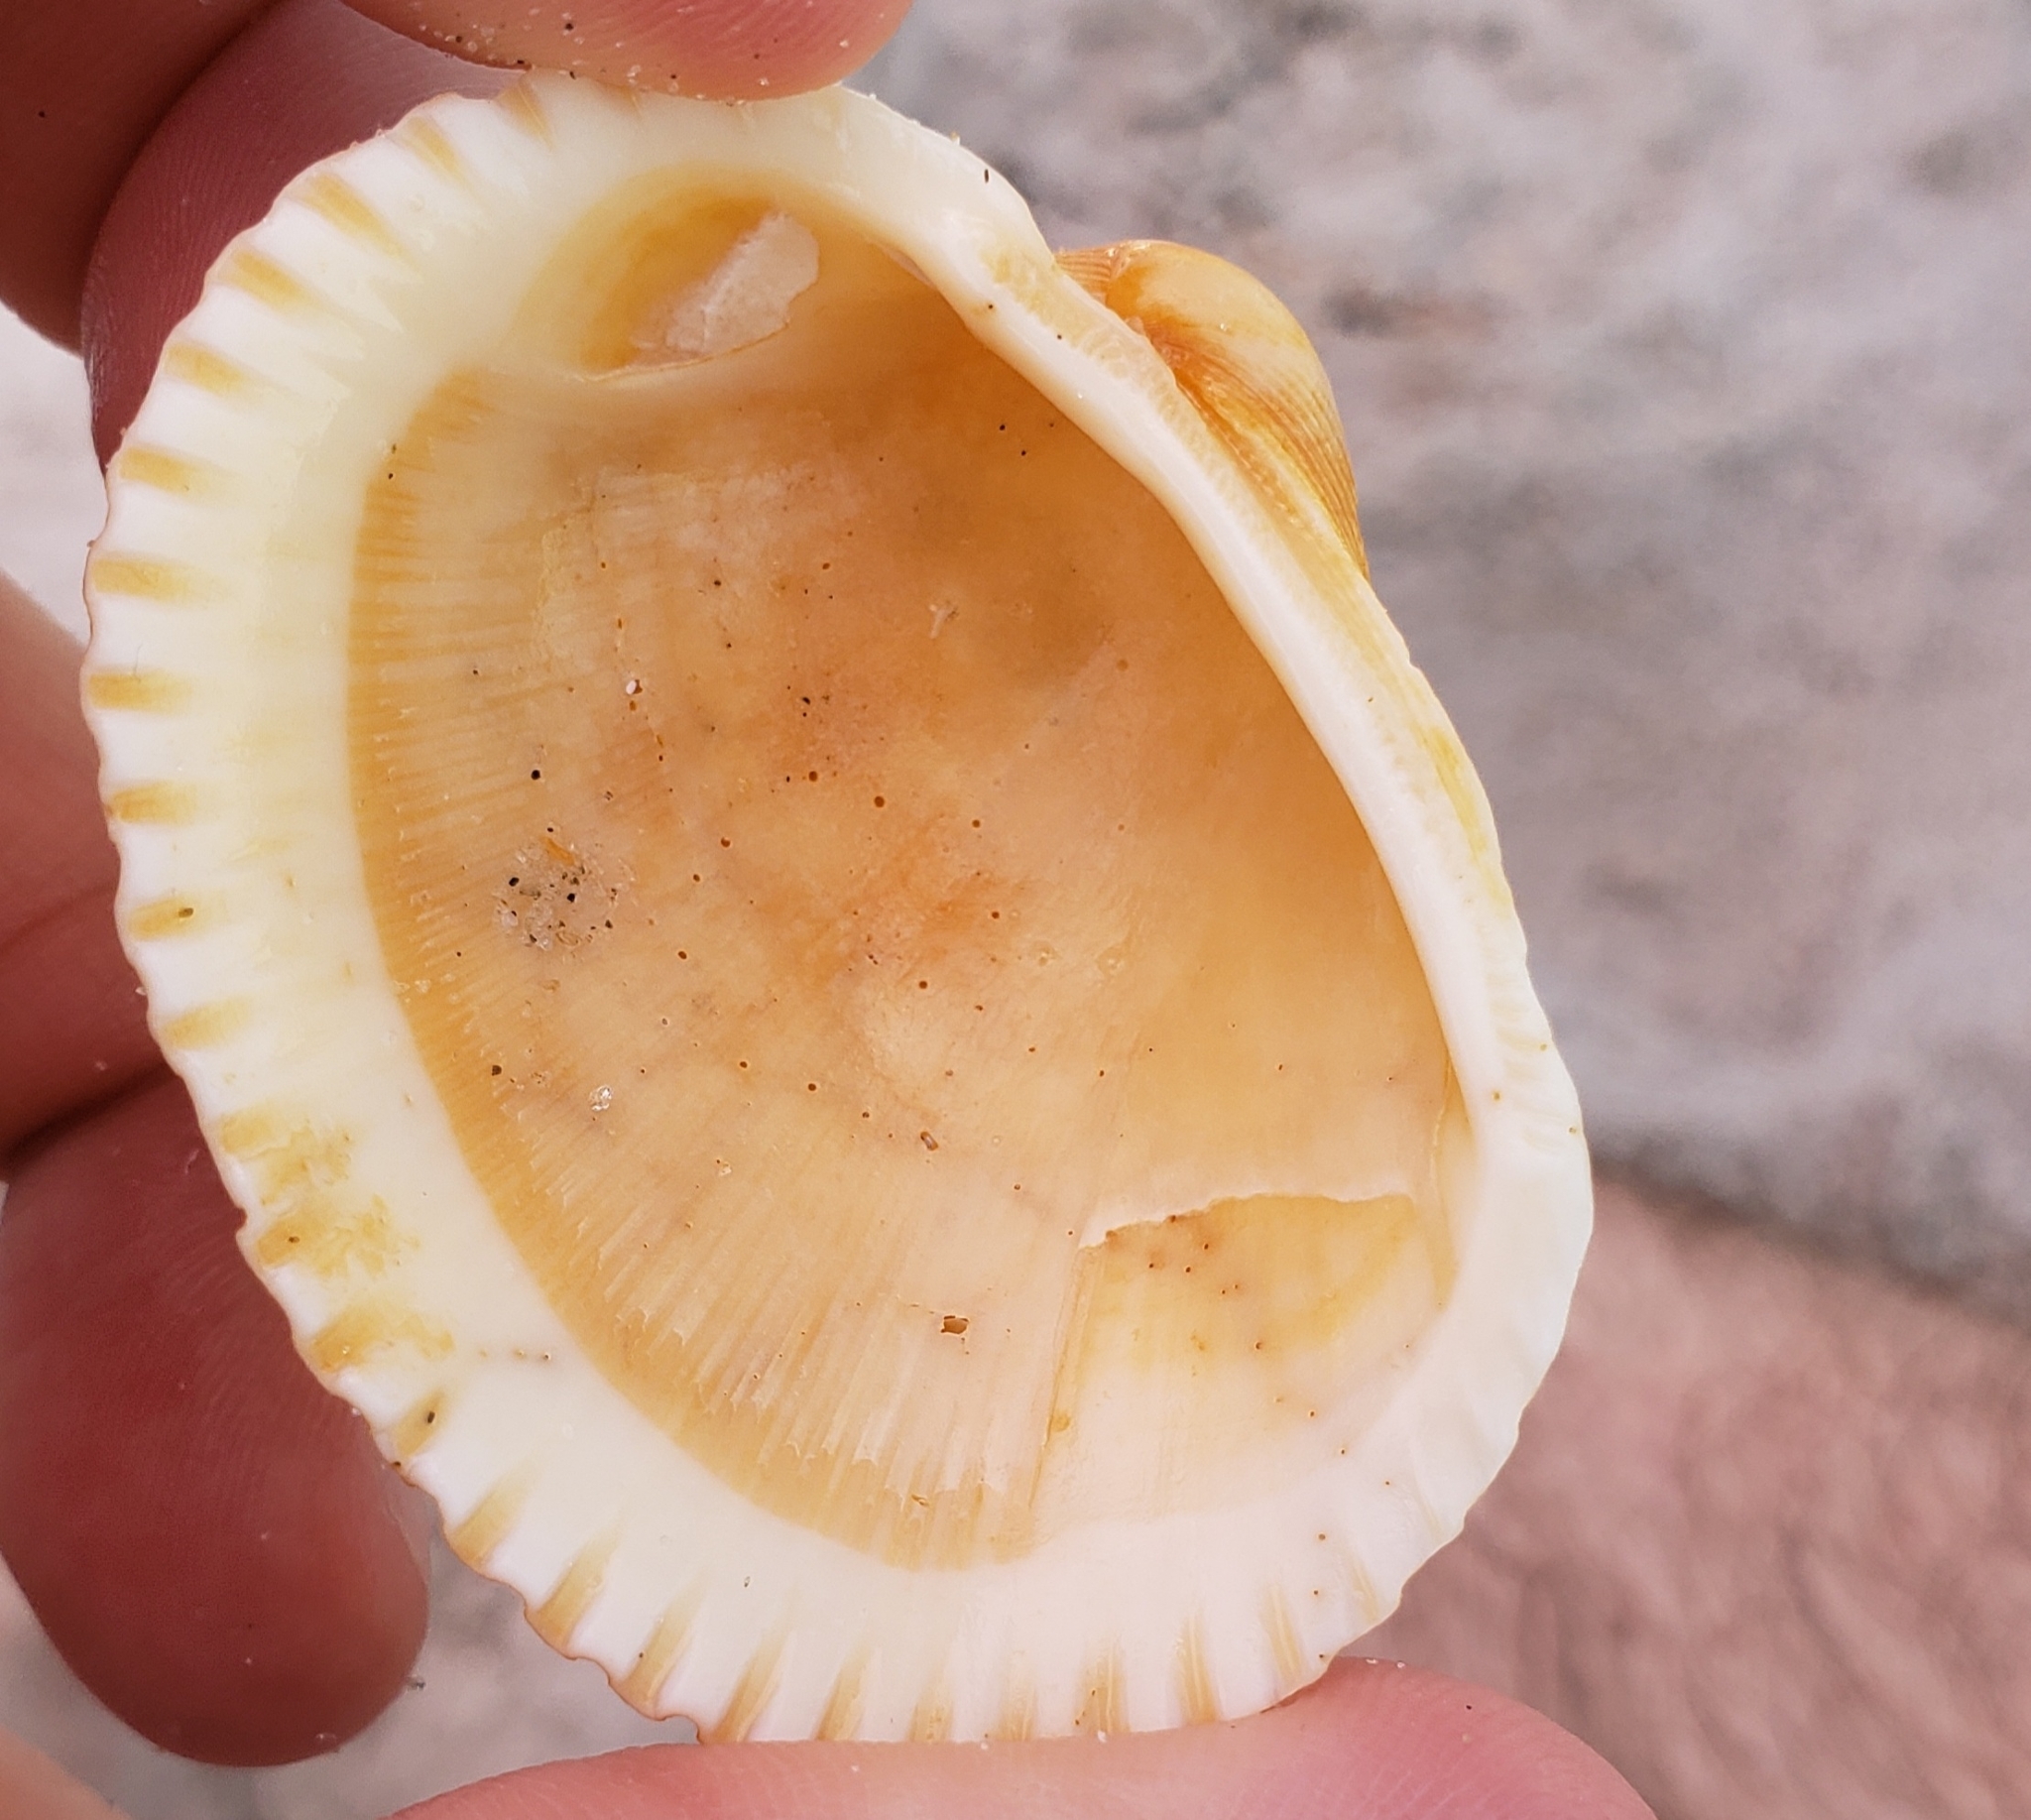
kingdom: Animalia
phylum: Mollusca
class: Bivalvia
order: Arcida
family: Arcidae
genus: Lunarca
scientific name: Lunarca ovalis
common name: Blood ark
